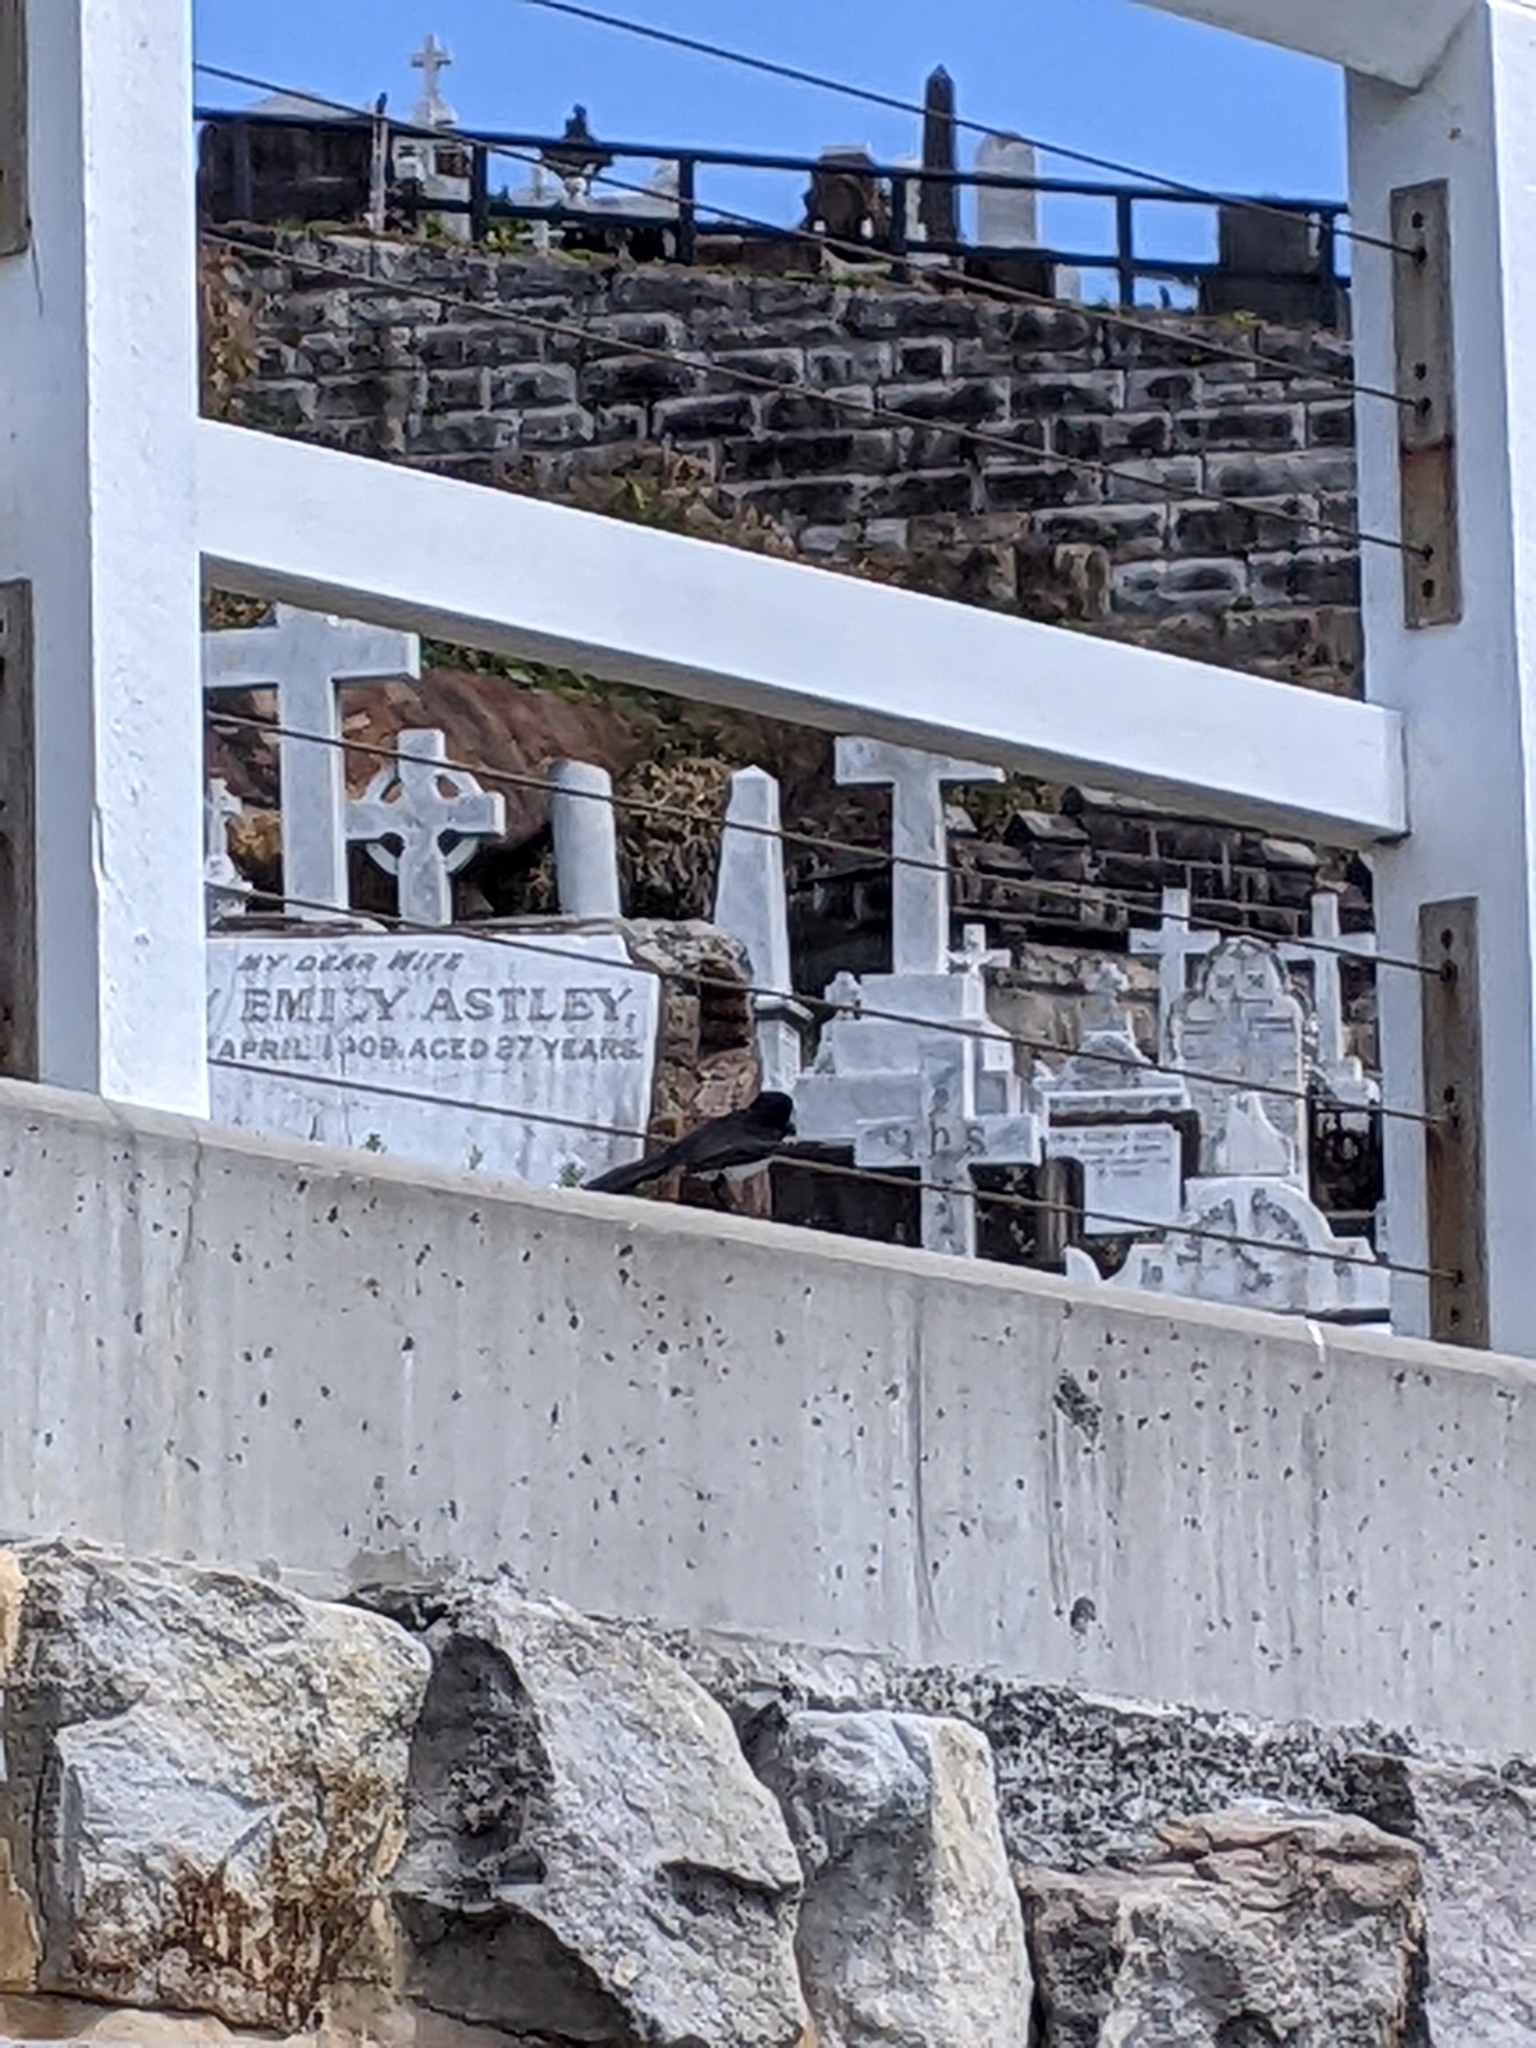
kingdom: Animalia
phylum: Chordata
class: Aves
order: Passeriformes
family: Rhipiduridae
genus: Rhipidura
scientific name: Rhipidura leucophrys
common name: Willie wagtail
